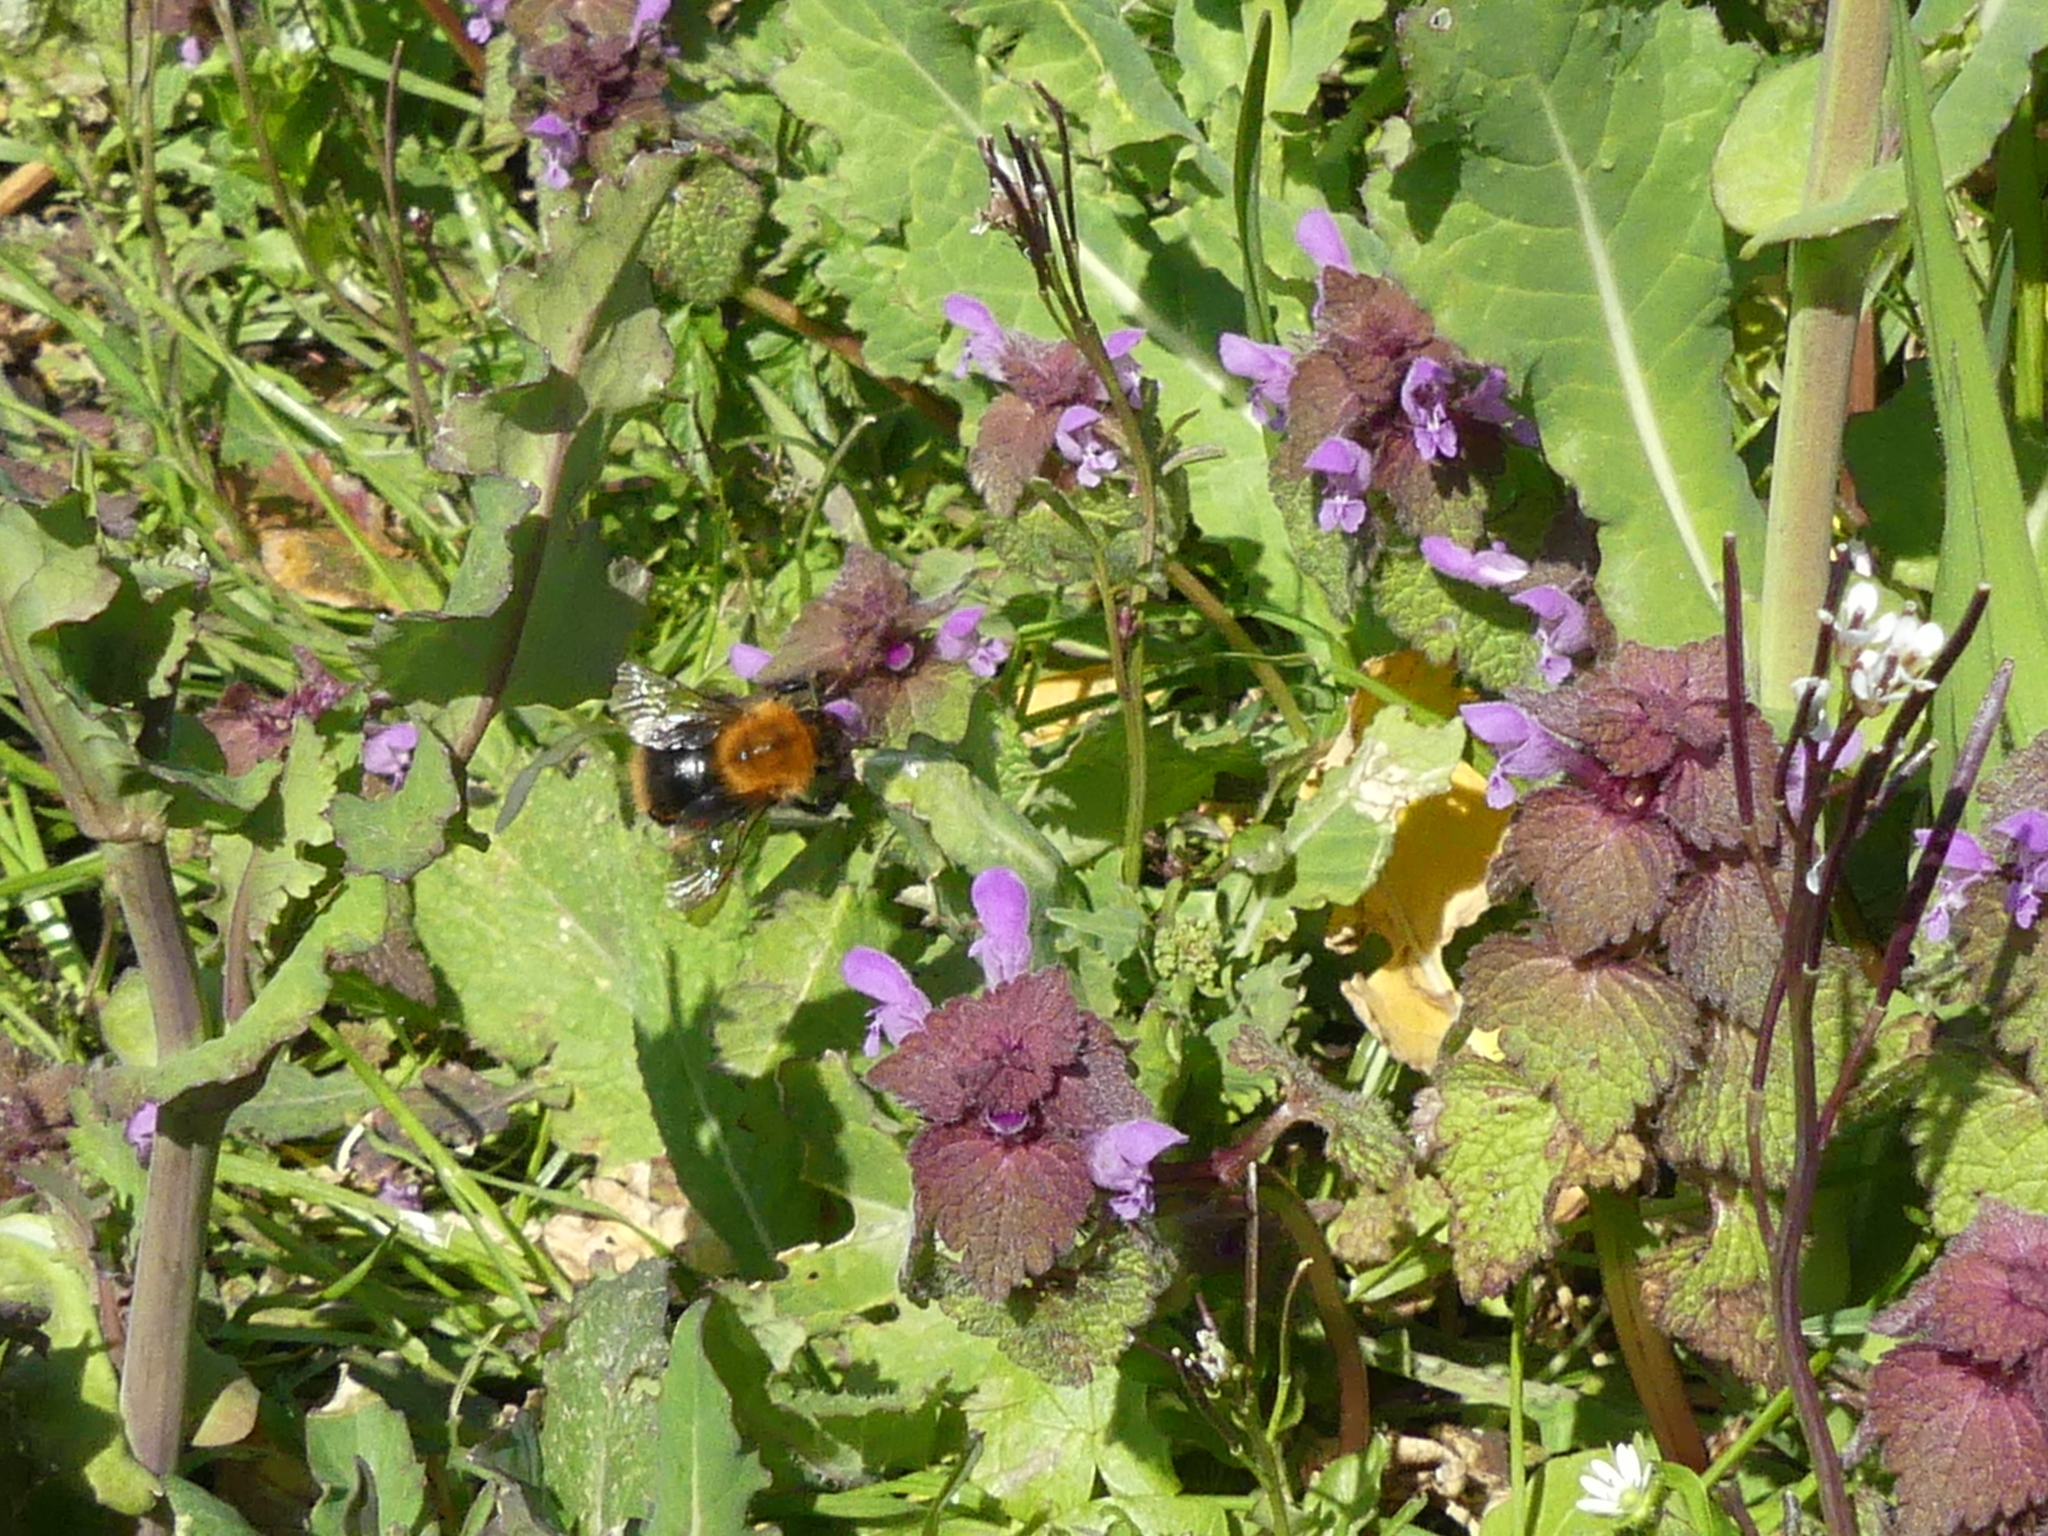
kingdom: Animalia
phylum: Arthropoda
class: Insecta
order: Hymenoptera
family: Apidae
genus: Bombus
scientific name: Bombus pascuorum
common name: Common carder bee
